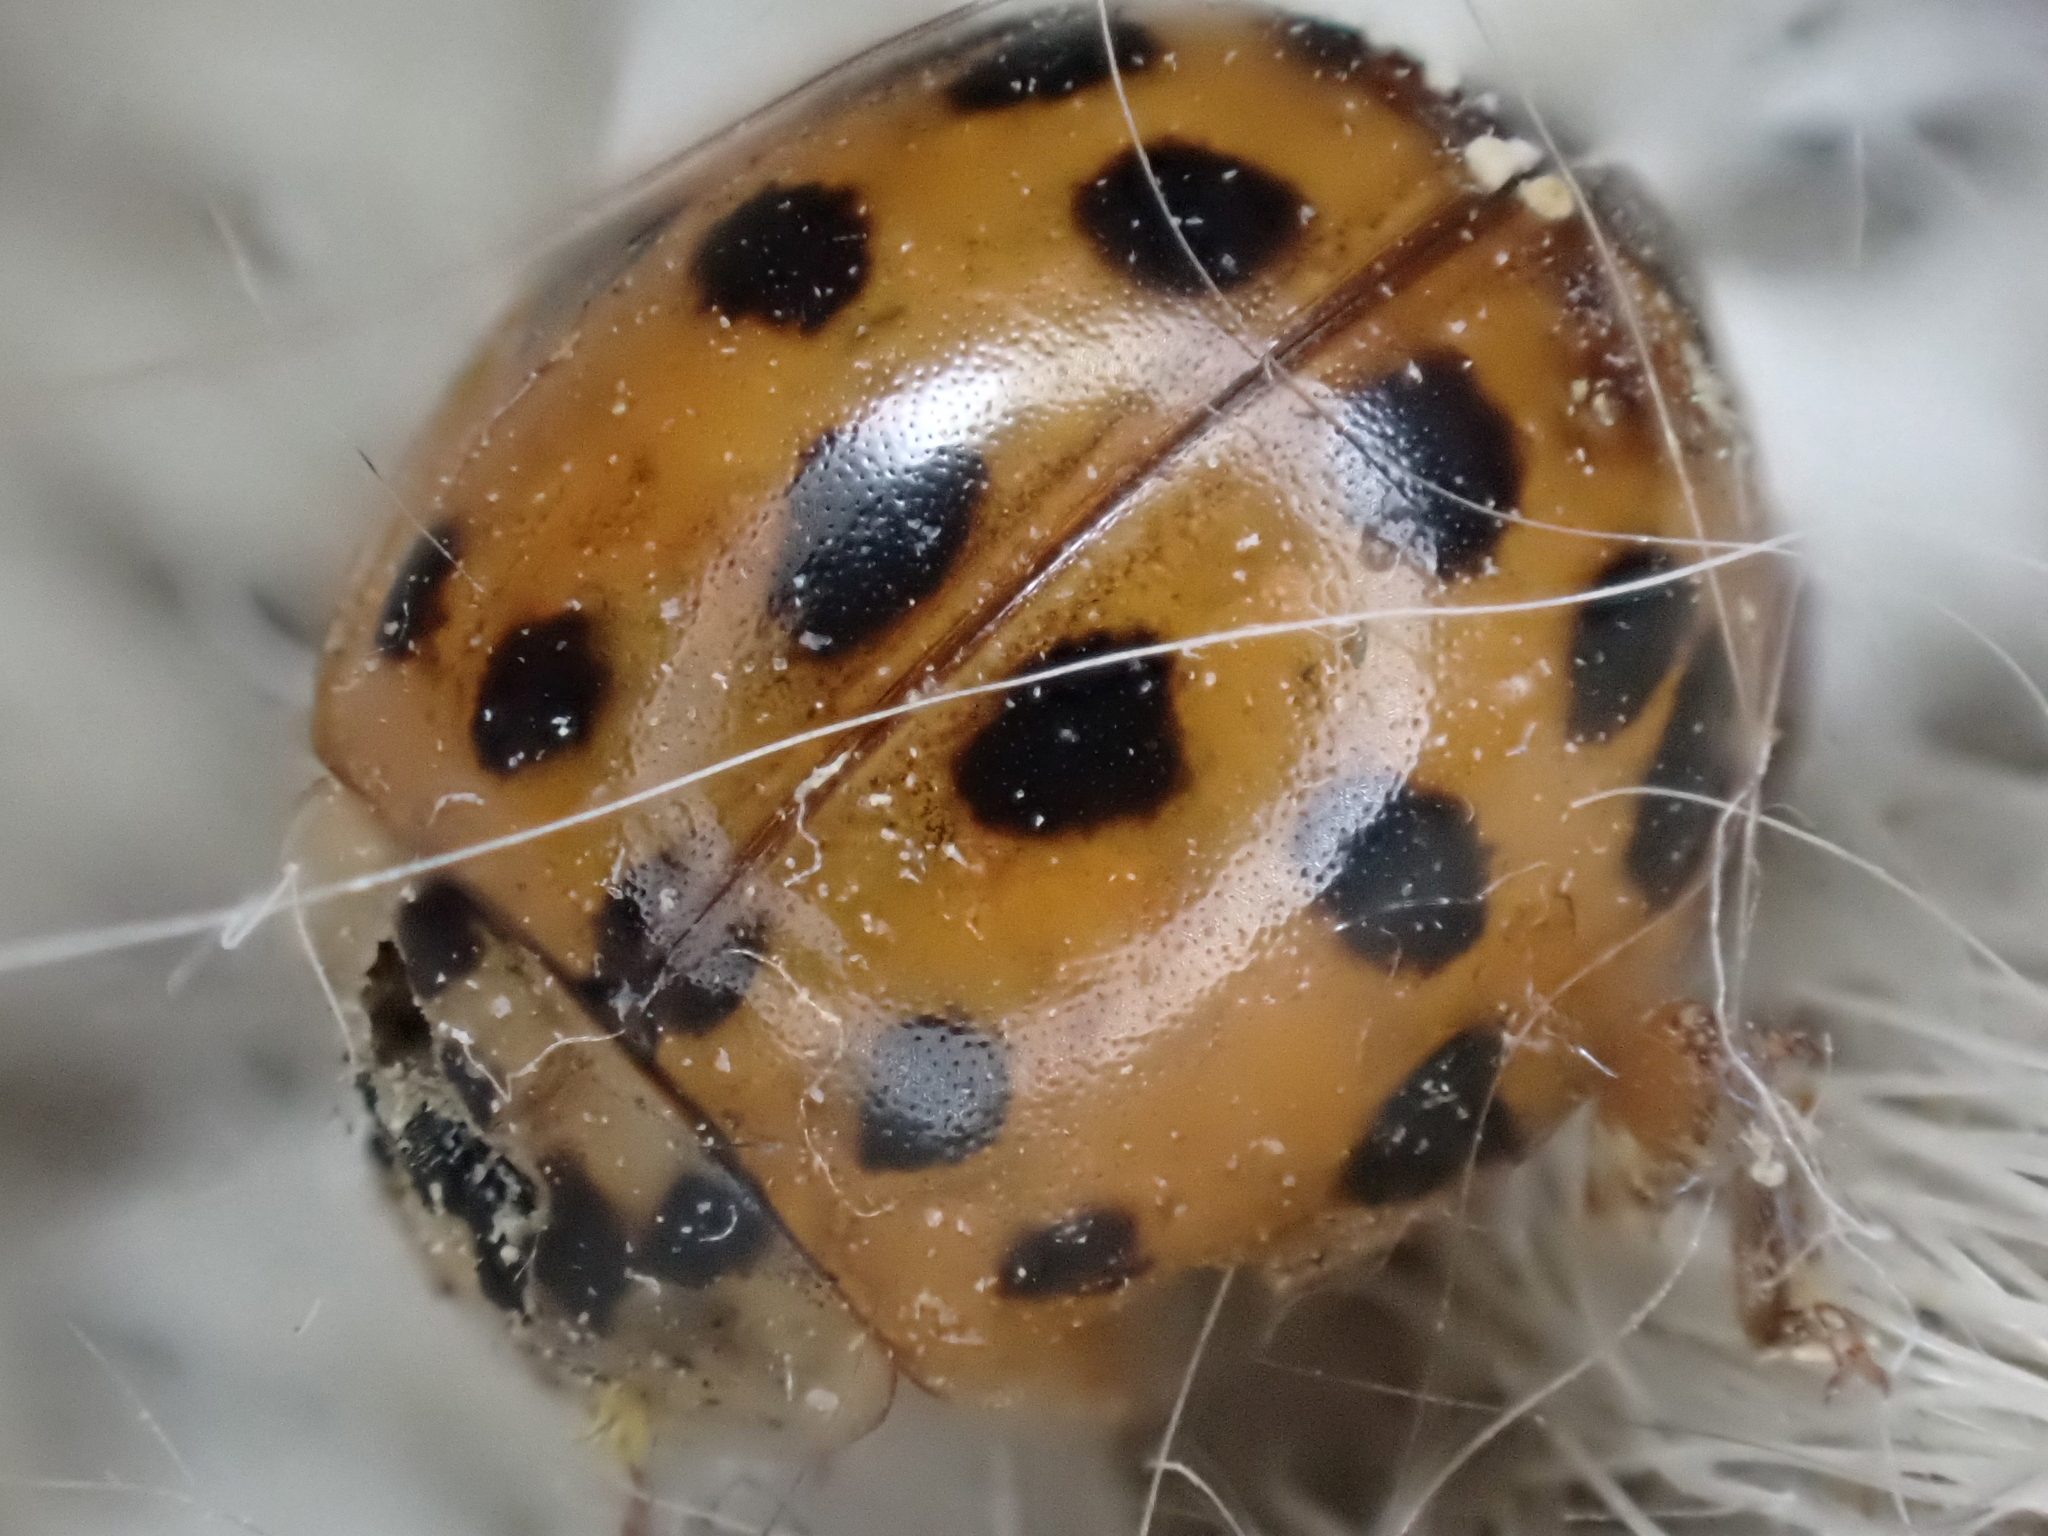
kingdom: Animalia
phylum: Arthropoda
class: Insecta
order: Coleoptera
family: Coccinellidae
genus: Harmonia
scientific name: Harmonia axyridis
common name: Harlequin ladybird
